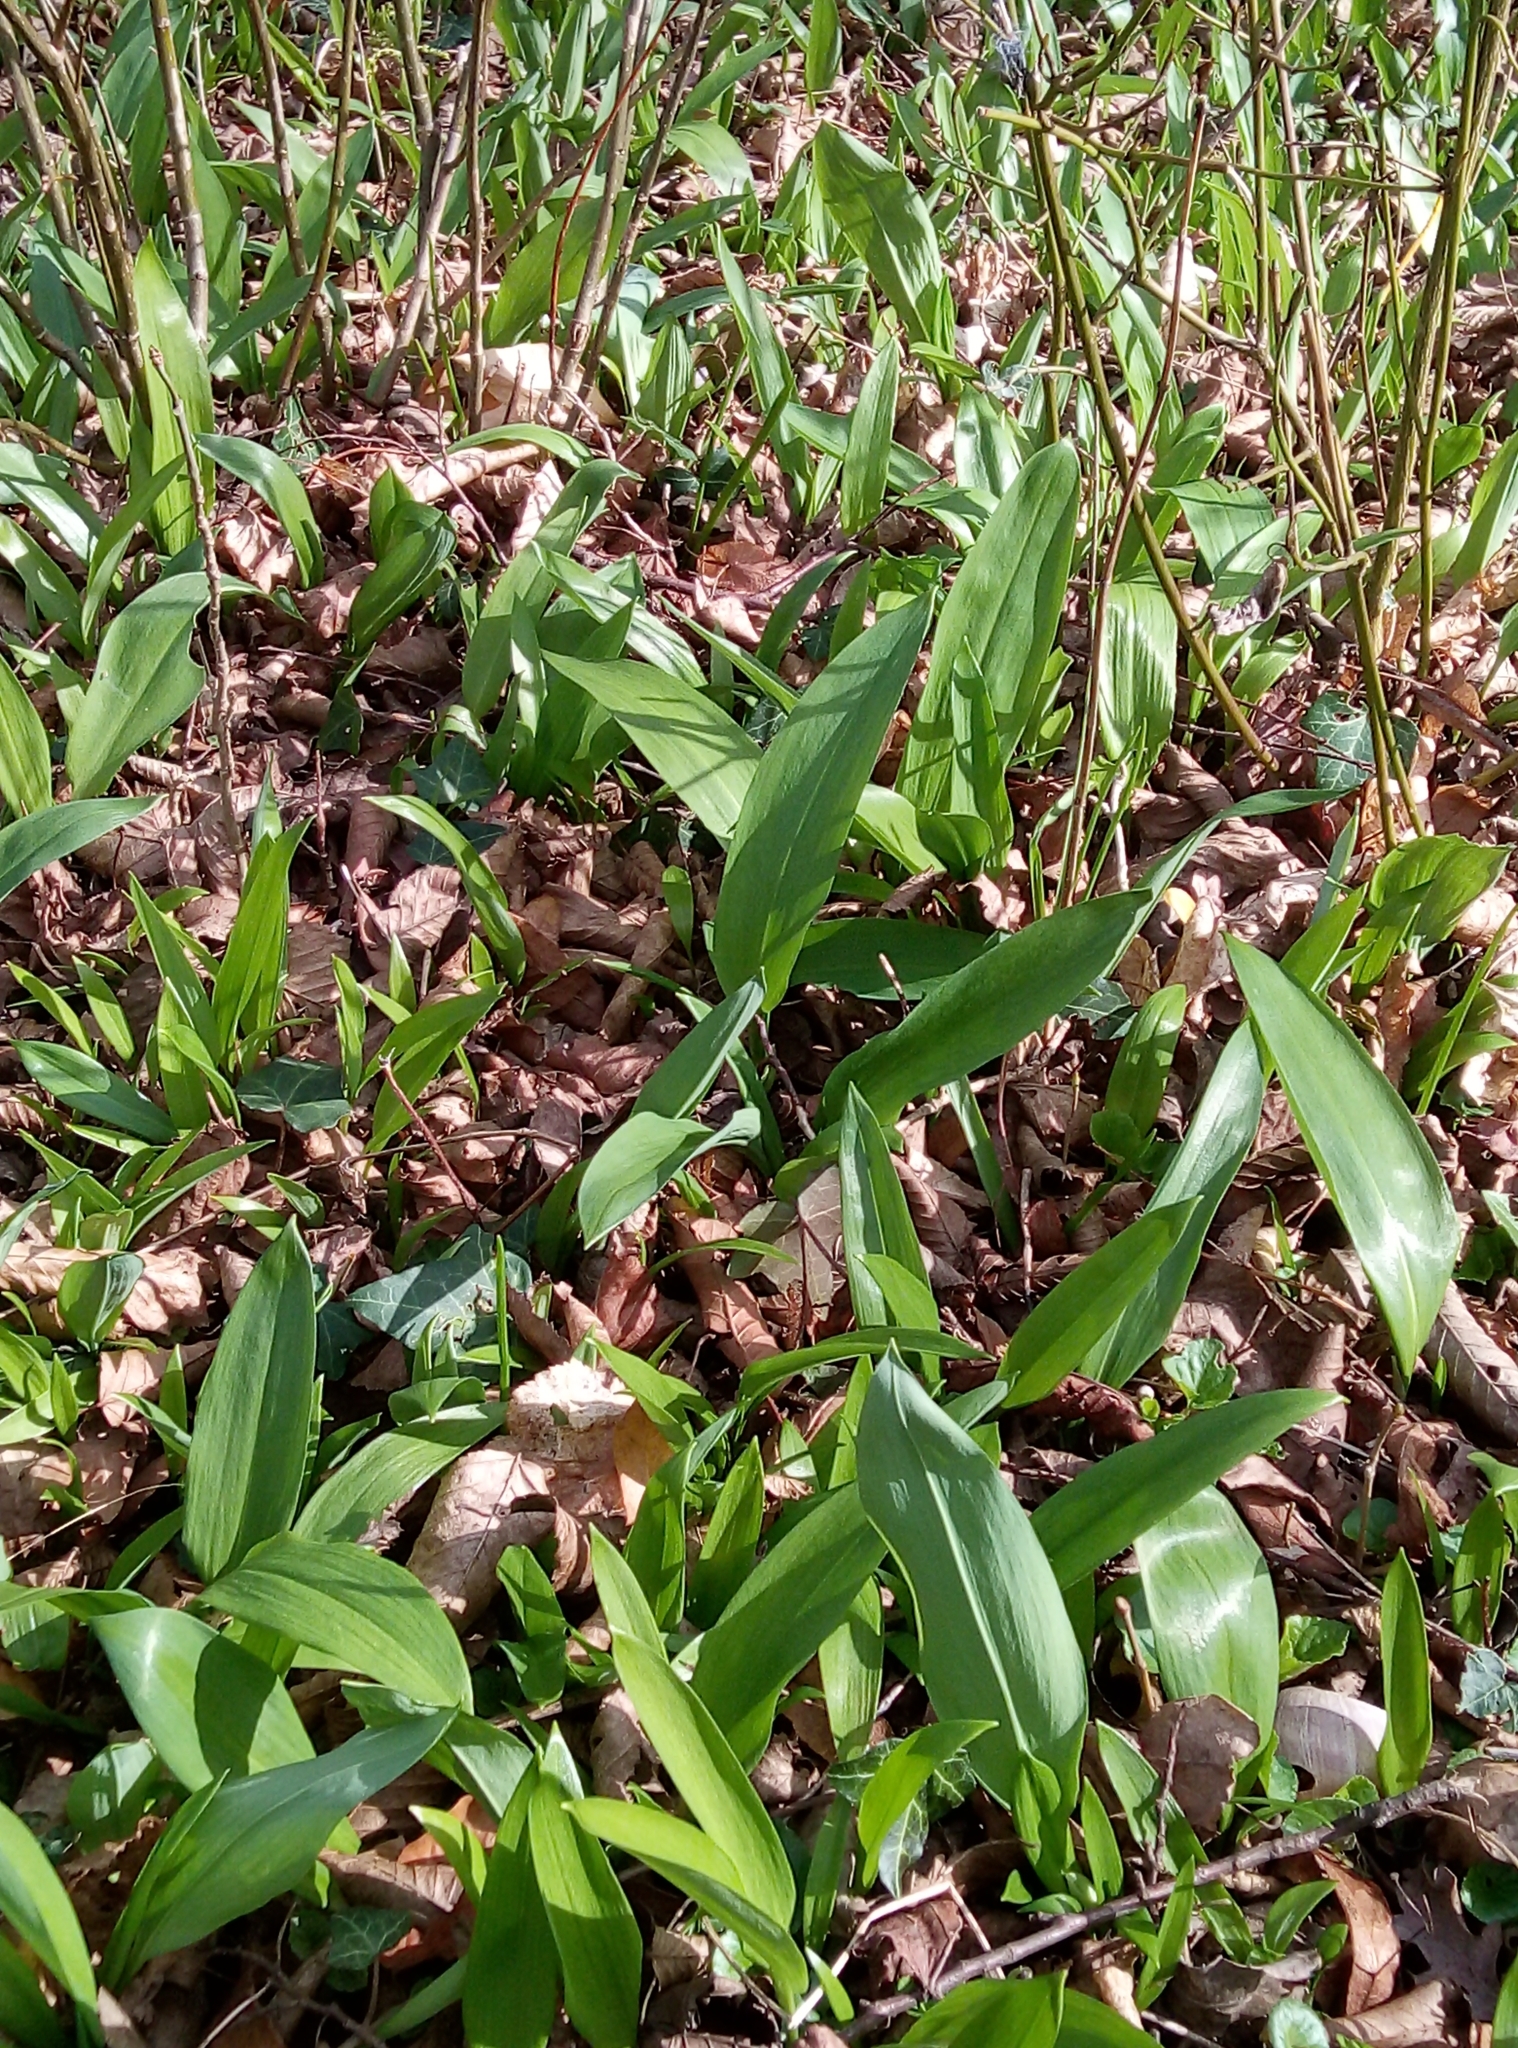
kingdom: Plantae
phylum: Tracheophyta
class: Liliopsida
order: Asparagales
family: Amaryllidaceae
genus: Allium
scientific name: Allium ursinum
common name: Ramsons
